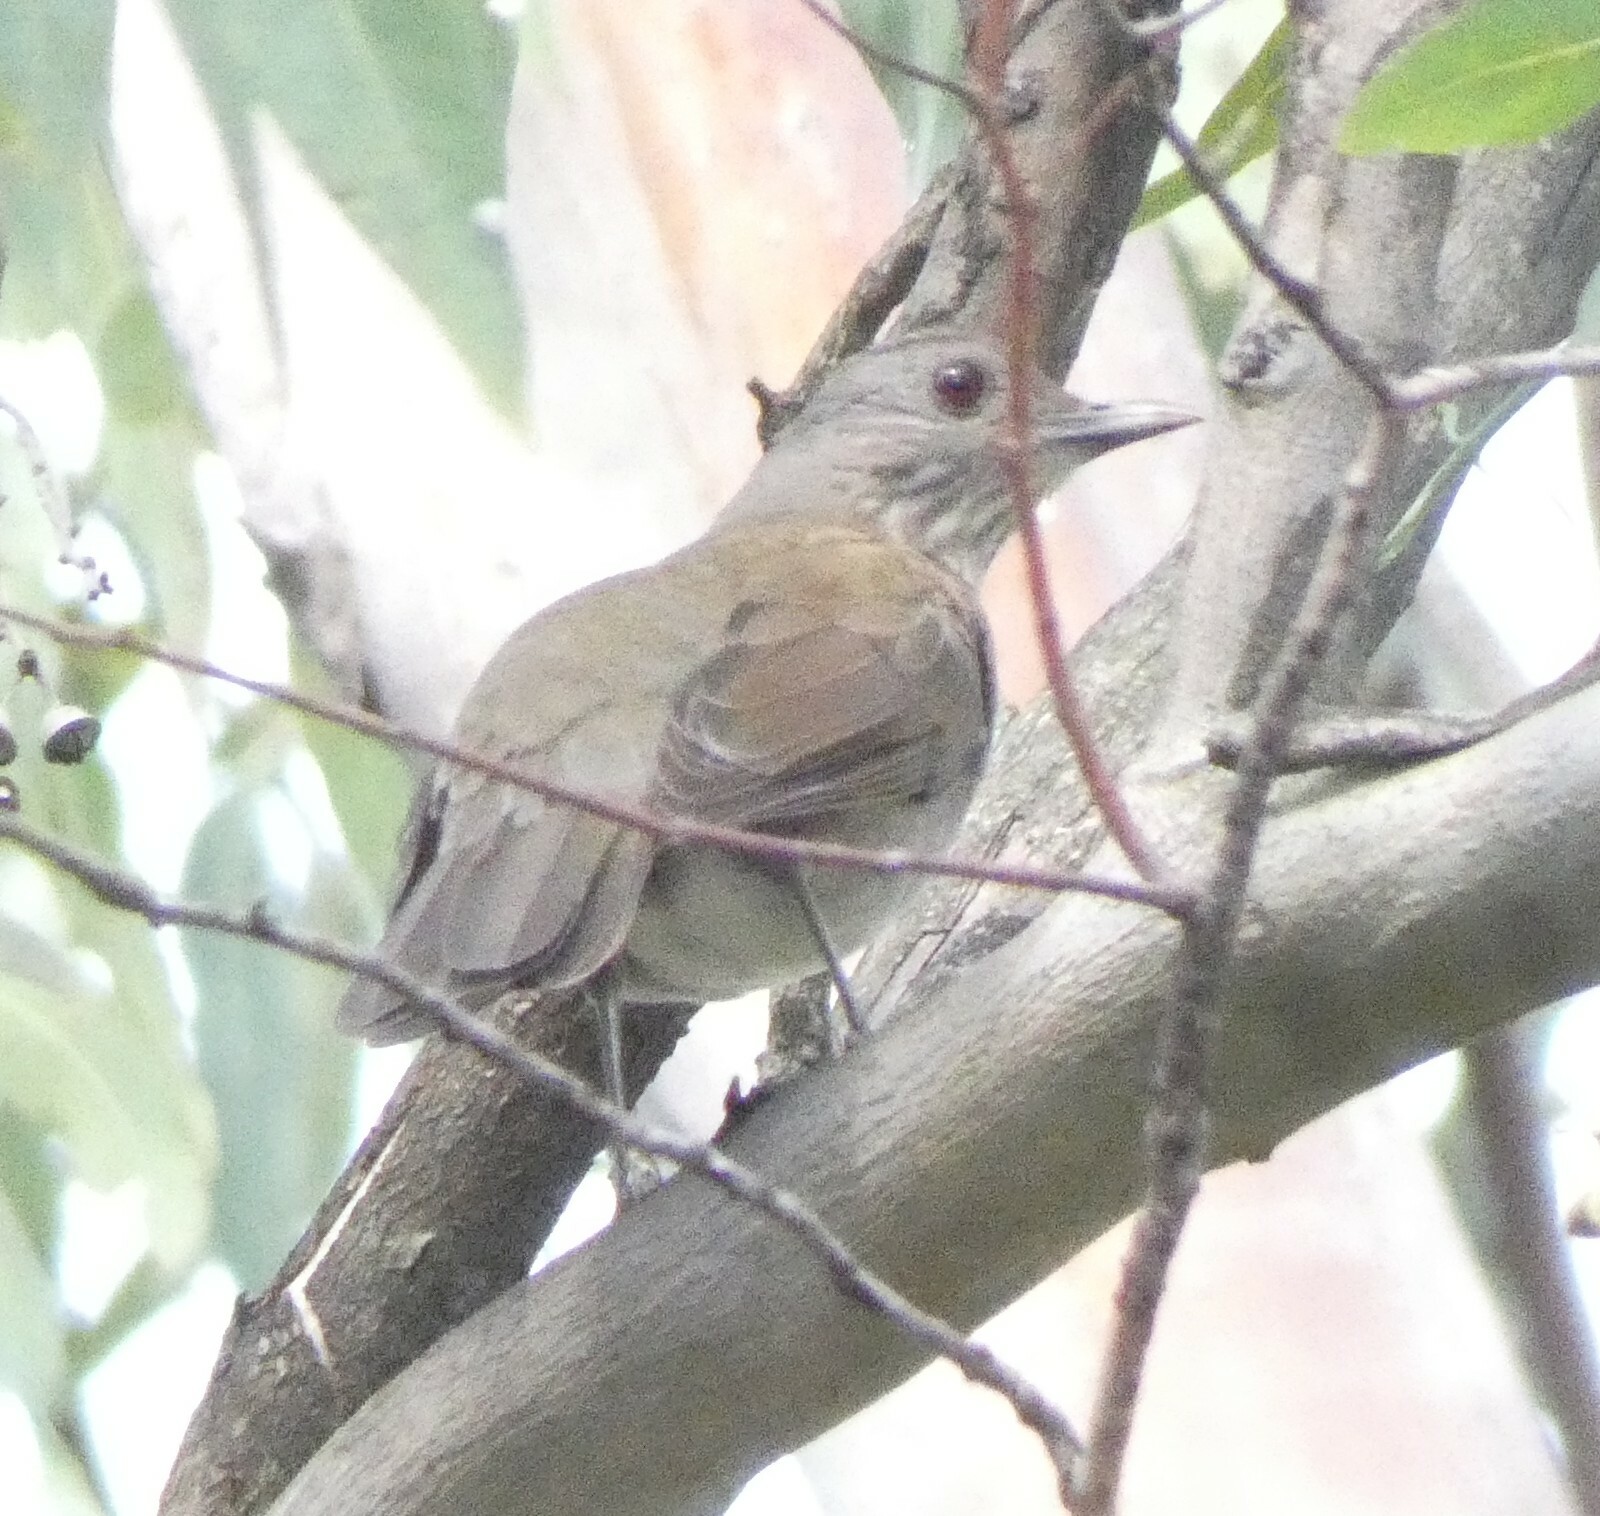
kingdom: Animalia
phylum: Chordata
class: Aves
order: Passeriformes
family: Turdidae
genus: Turdus
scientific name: Turdus leucomelas
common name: Pale-breasted thrush
